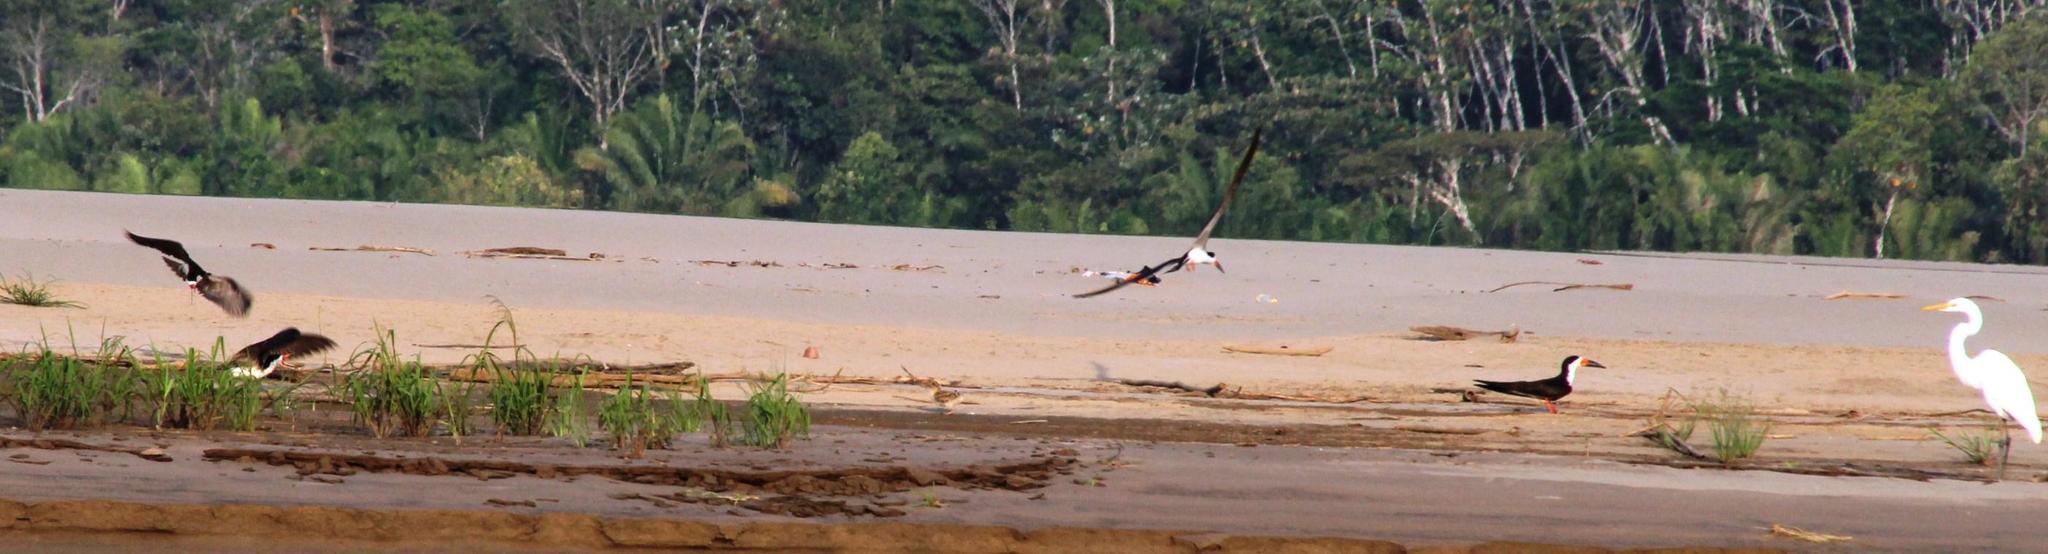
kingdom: Animalia
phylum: Chordata
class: Aves
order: Charadriiformes
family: Laridae
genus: Rynchops
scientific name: Rynchops niger
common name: Black skimmer
